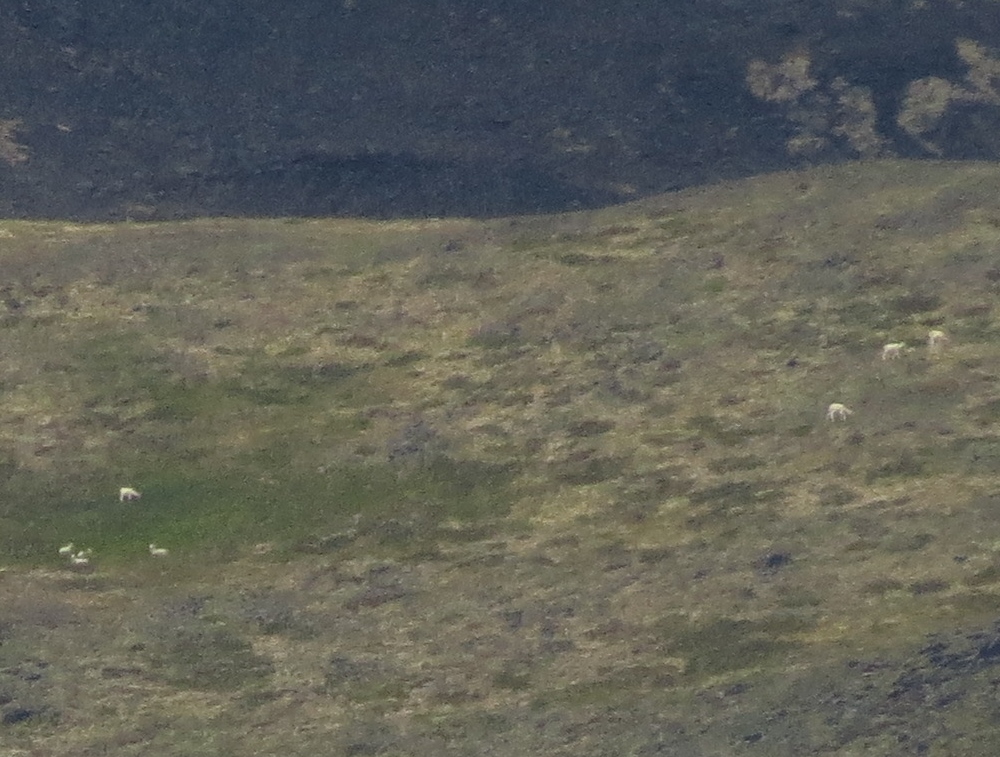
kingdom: Animalia
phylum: Chordata
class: Mammalia
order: Artiodactyla
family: Bovidae
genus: Ovis
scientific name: Ovis dalli
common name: Dall's sheep
